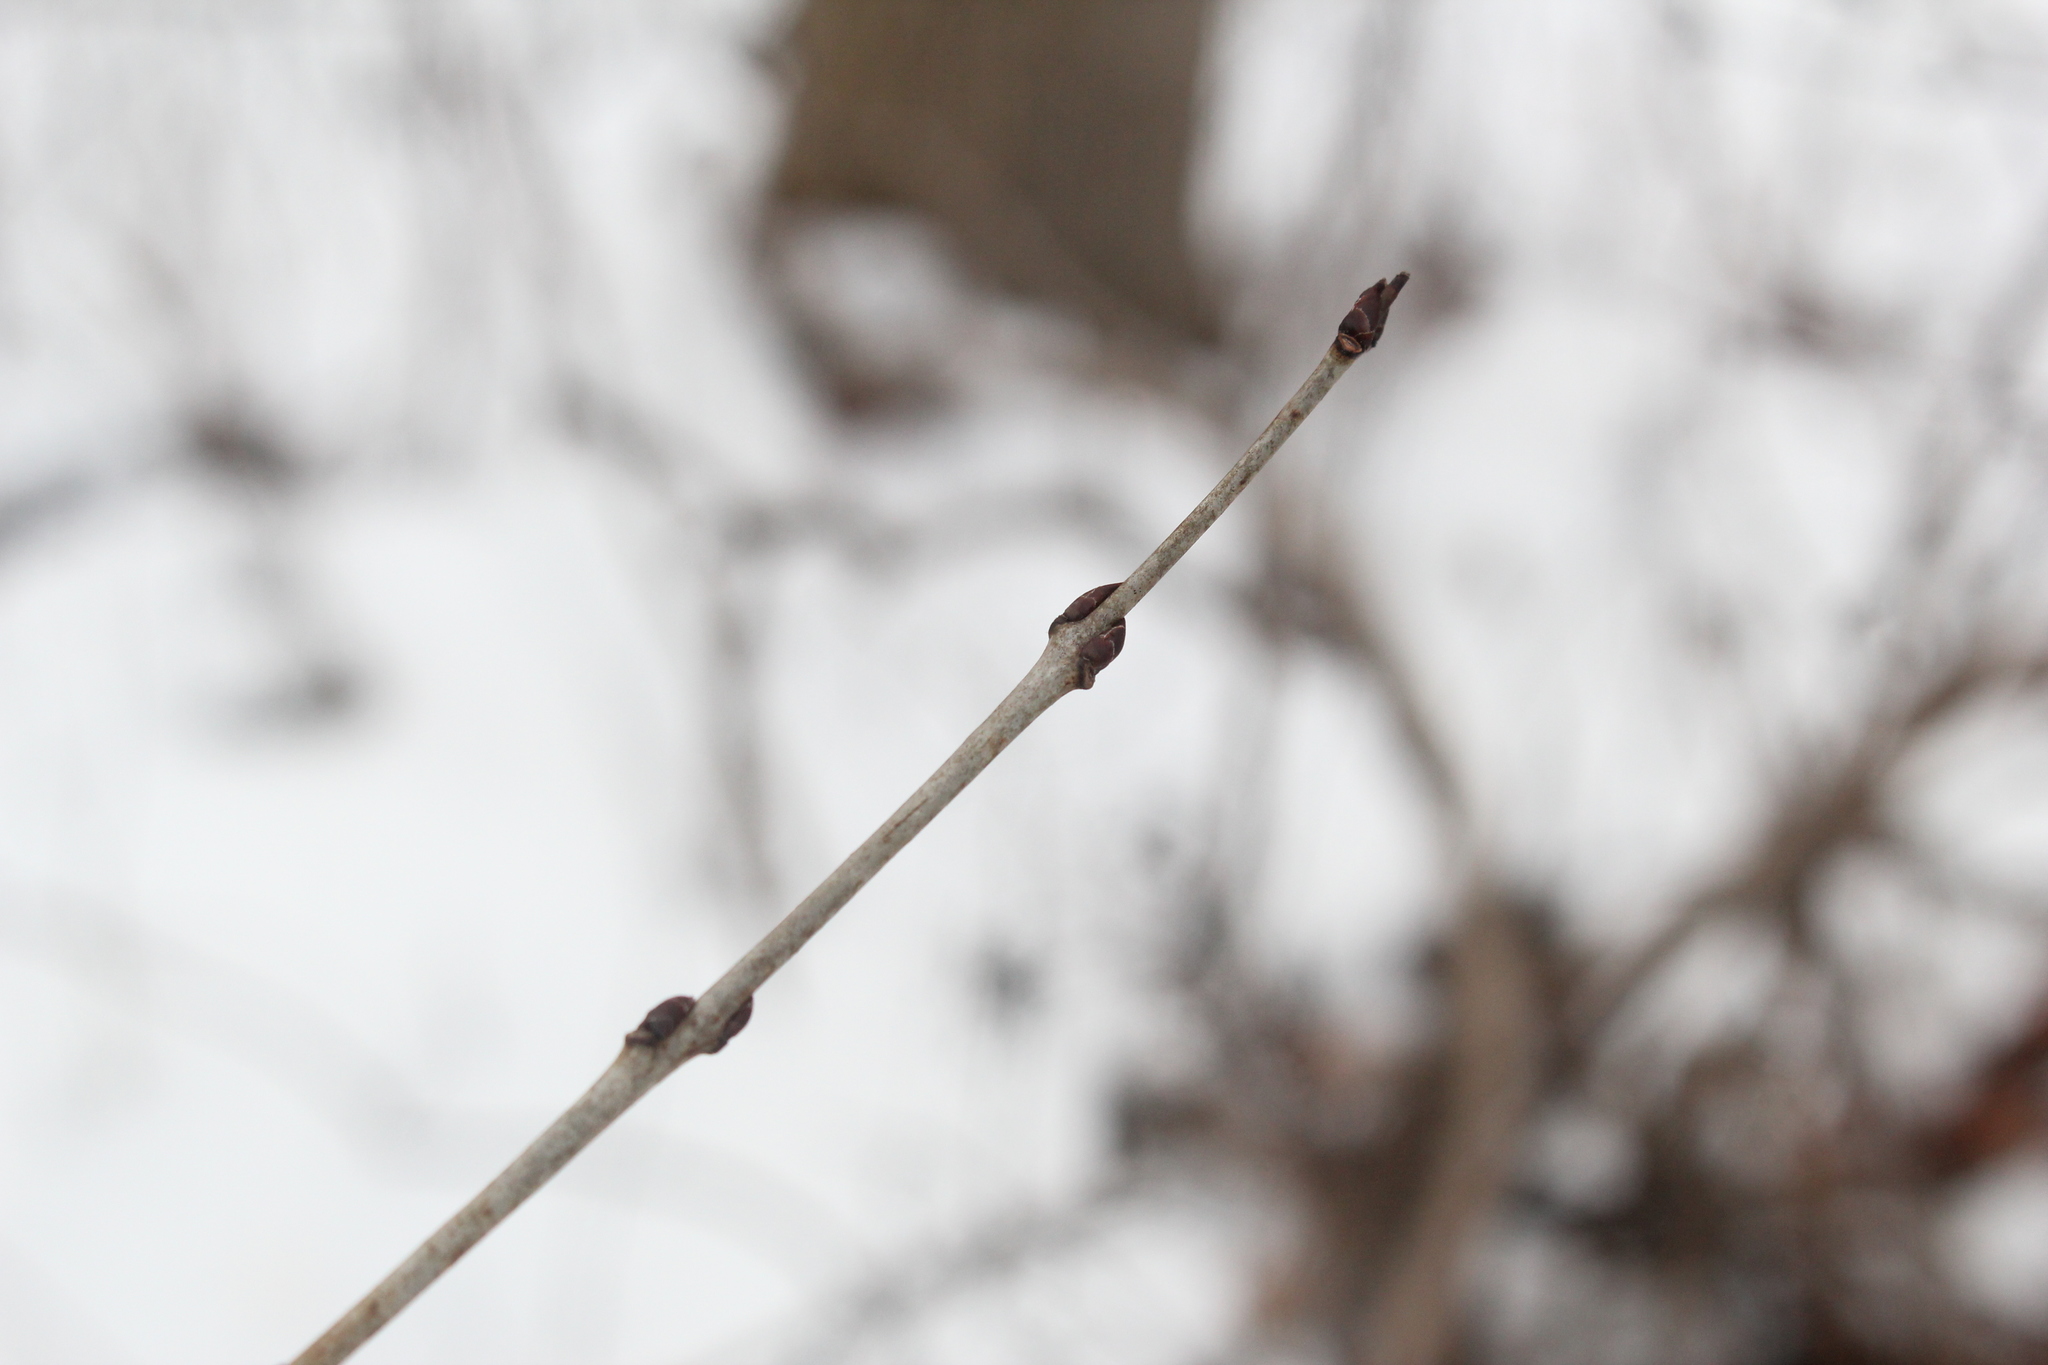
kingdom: Plantae
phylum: Tracheophyta
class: Magnoliopsida
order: Rosales
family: Rhamnaceae
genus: Rhamnus
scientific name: Rhamnus cathartica
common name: Common buckthorn
